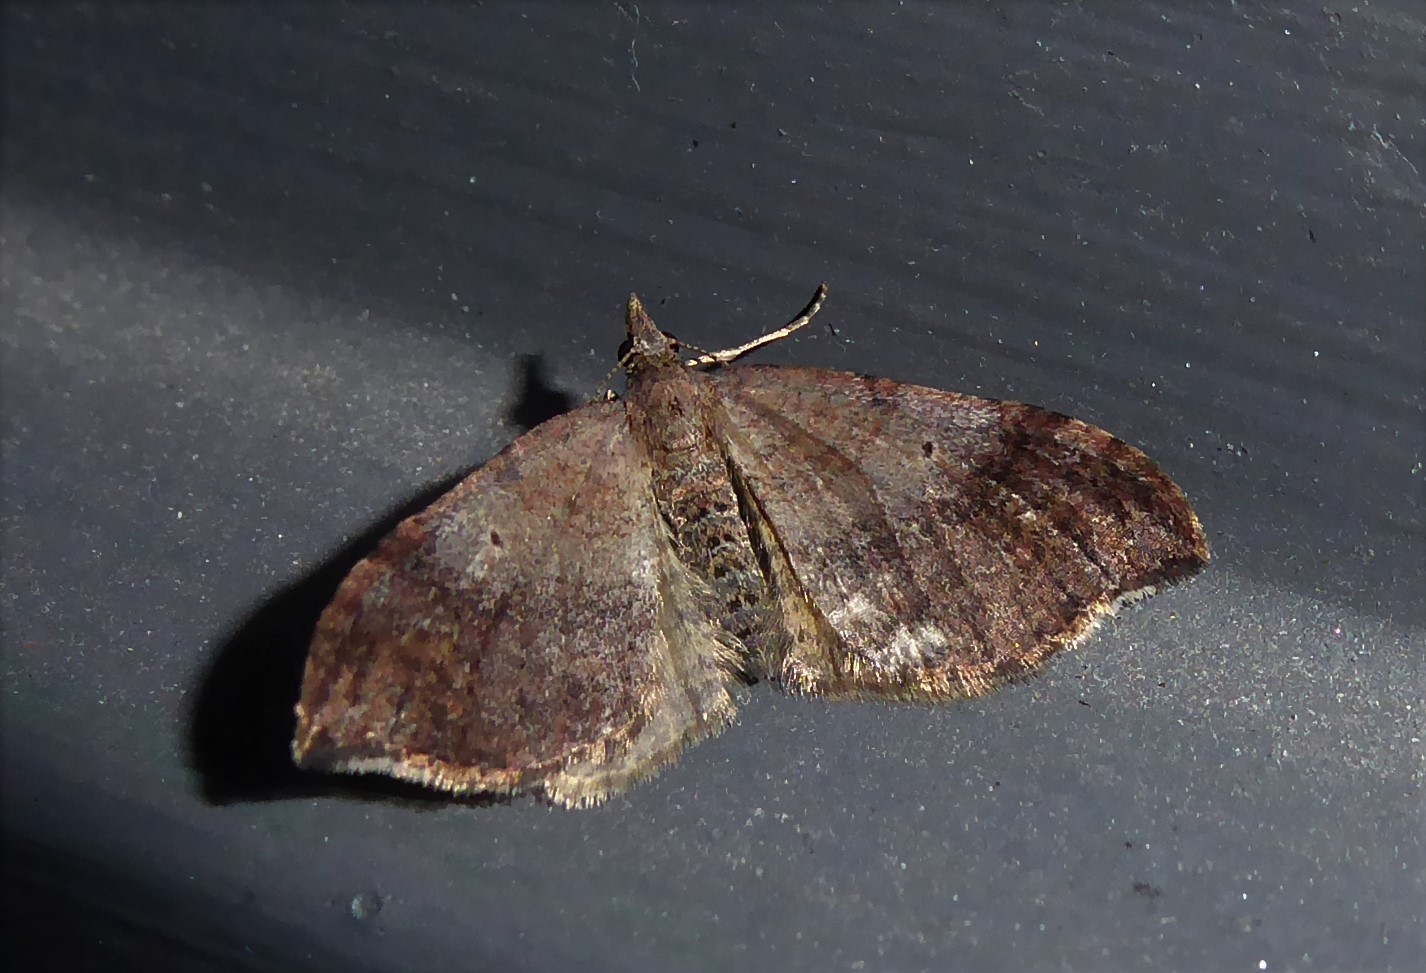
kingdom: Animalia
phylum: Arthropoda
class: Insecta
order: Lepidoptera
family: Geometridae
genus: Homodotis
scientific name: Homodotis megaspilata
